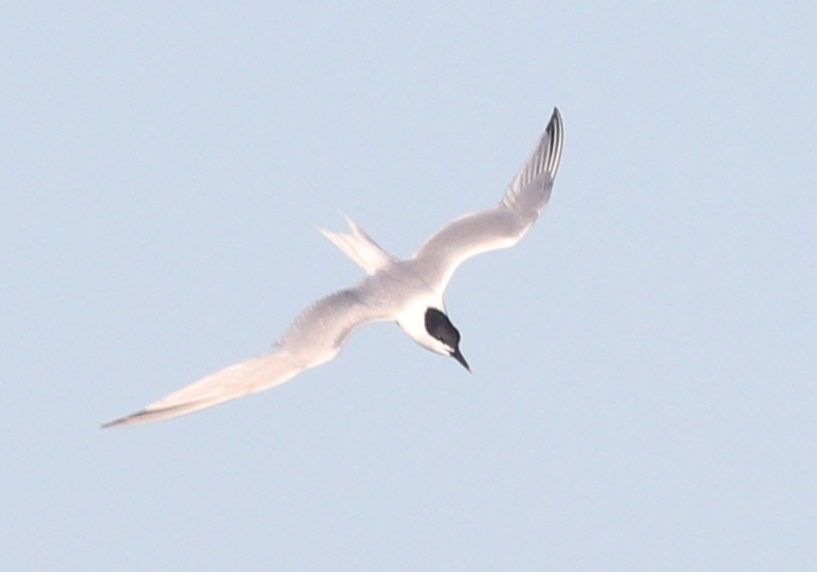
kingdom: Animalia
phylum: Chordata
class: Aves
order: Charadriiformes
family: Laridae
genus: Thalasseus
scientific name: Thalasseus sandvicensis
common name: Sandwich tern
